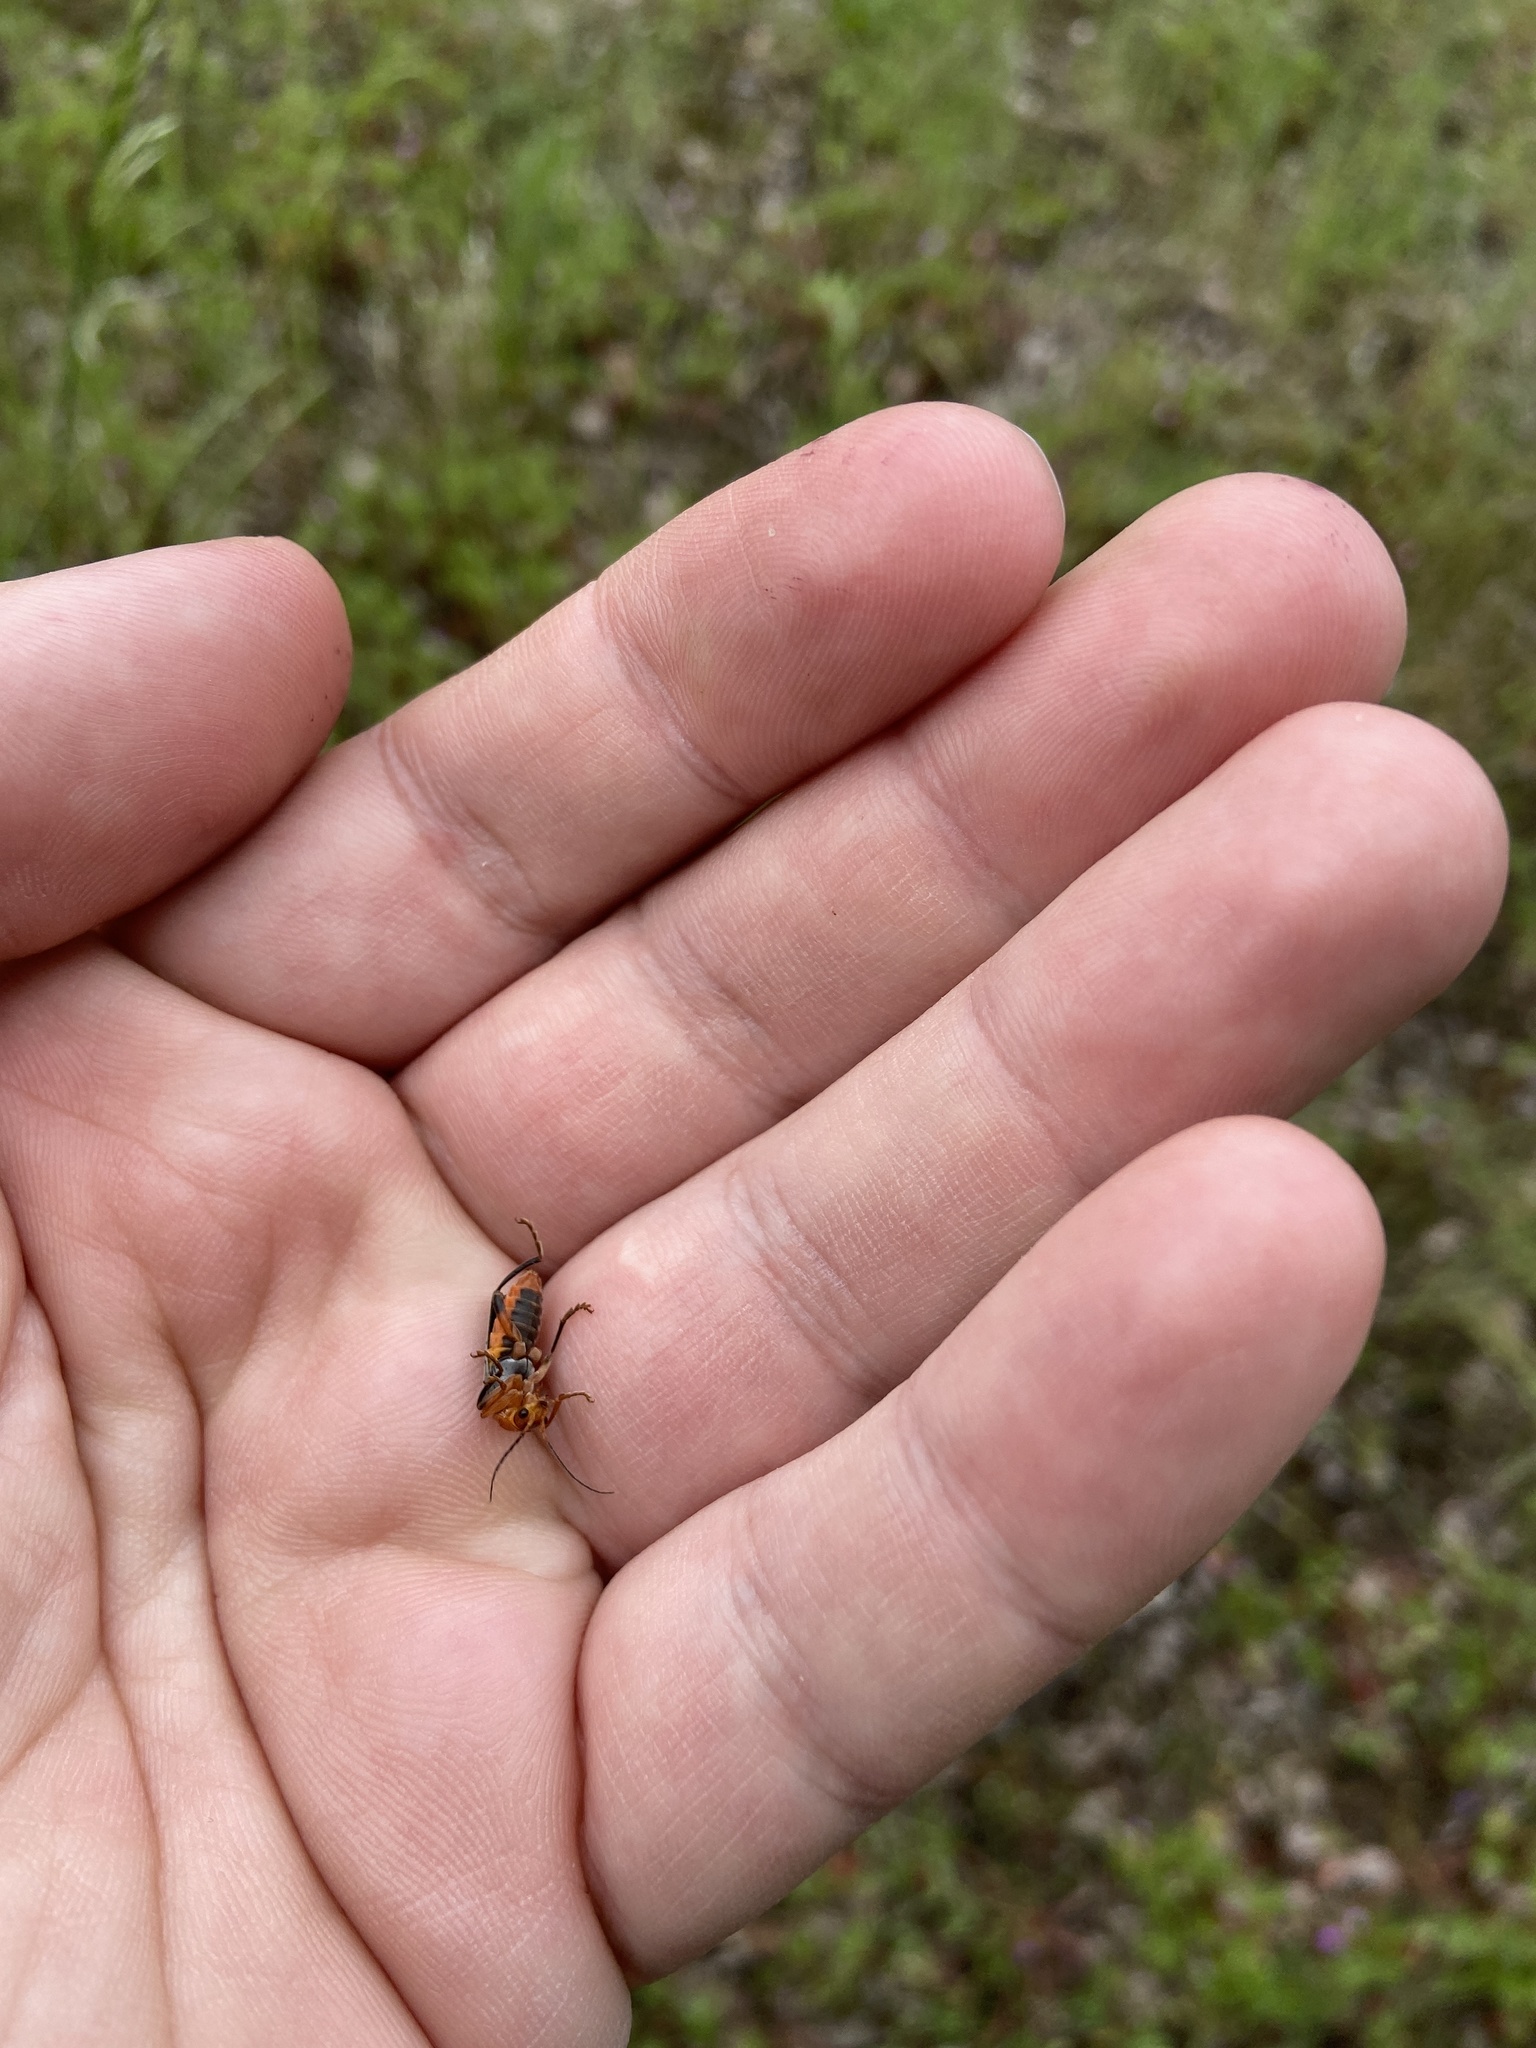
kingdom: Animalia
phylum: Arthropoda
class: Insecta
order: Coleoptera
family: Cantharidae
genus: Cantharis
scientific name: Cantharis livida
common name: Livid soldier beetle
